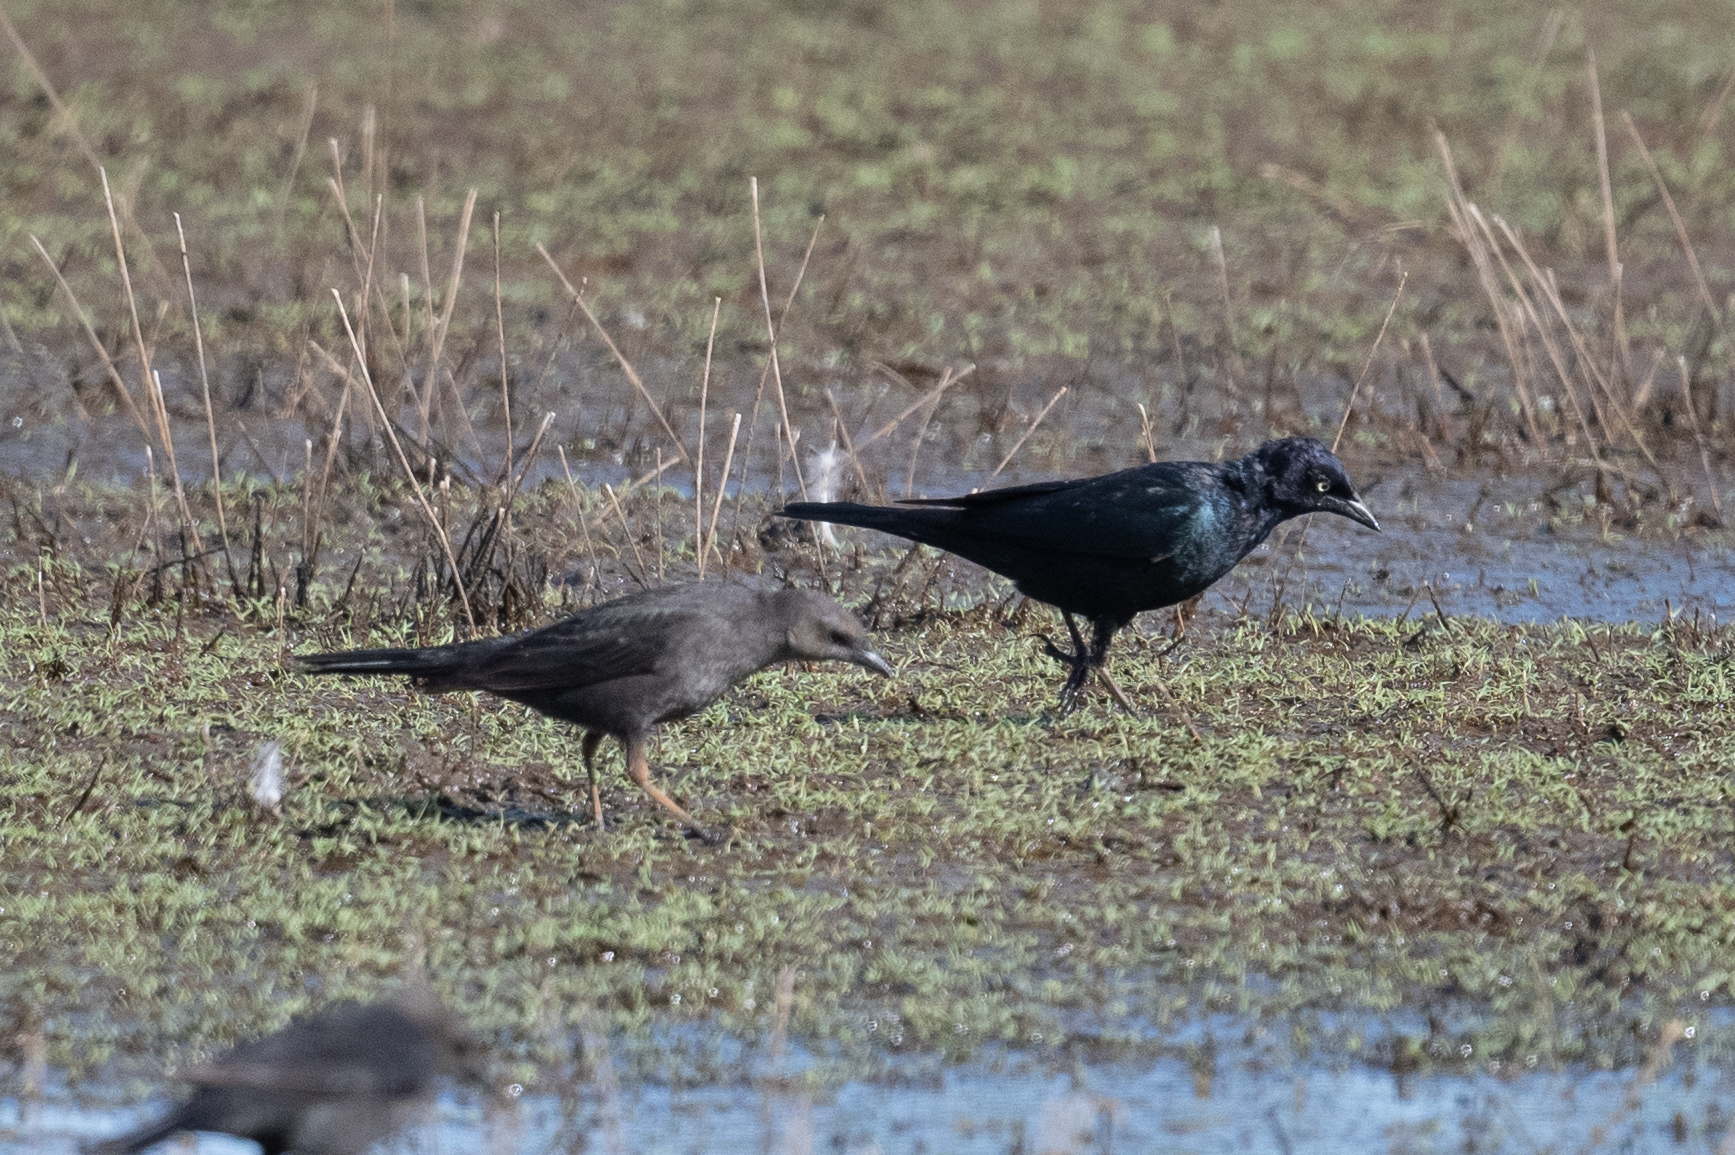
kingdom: Animalia
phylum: Chordata
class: Aves
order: Passeriformes
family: Icteridae
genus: Euphagus
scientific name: Euphagus cyanocephalus
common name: Brewer's blackbird
